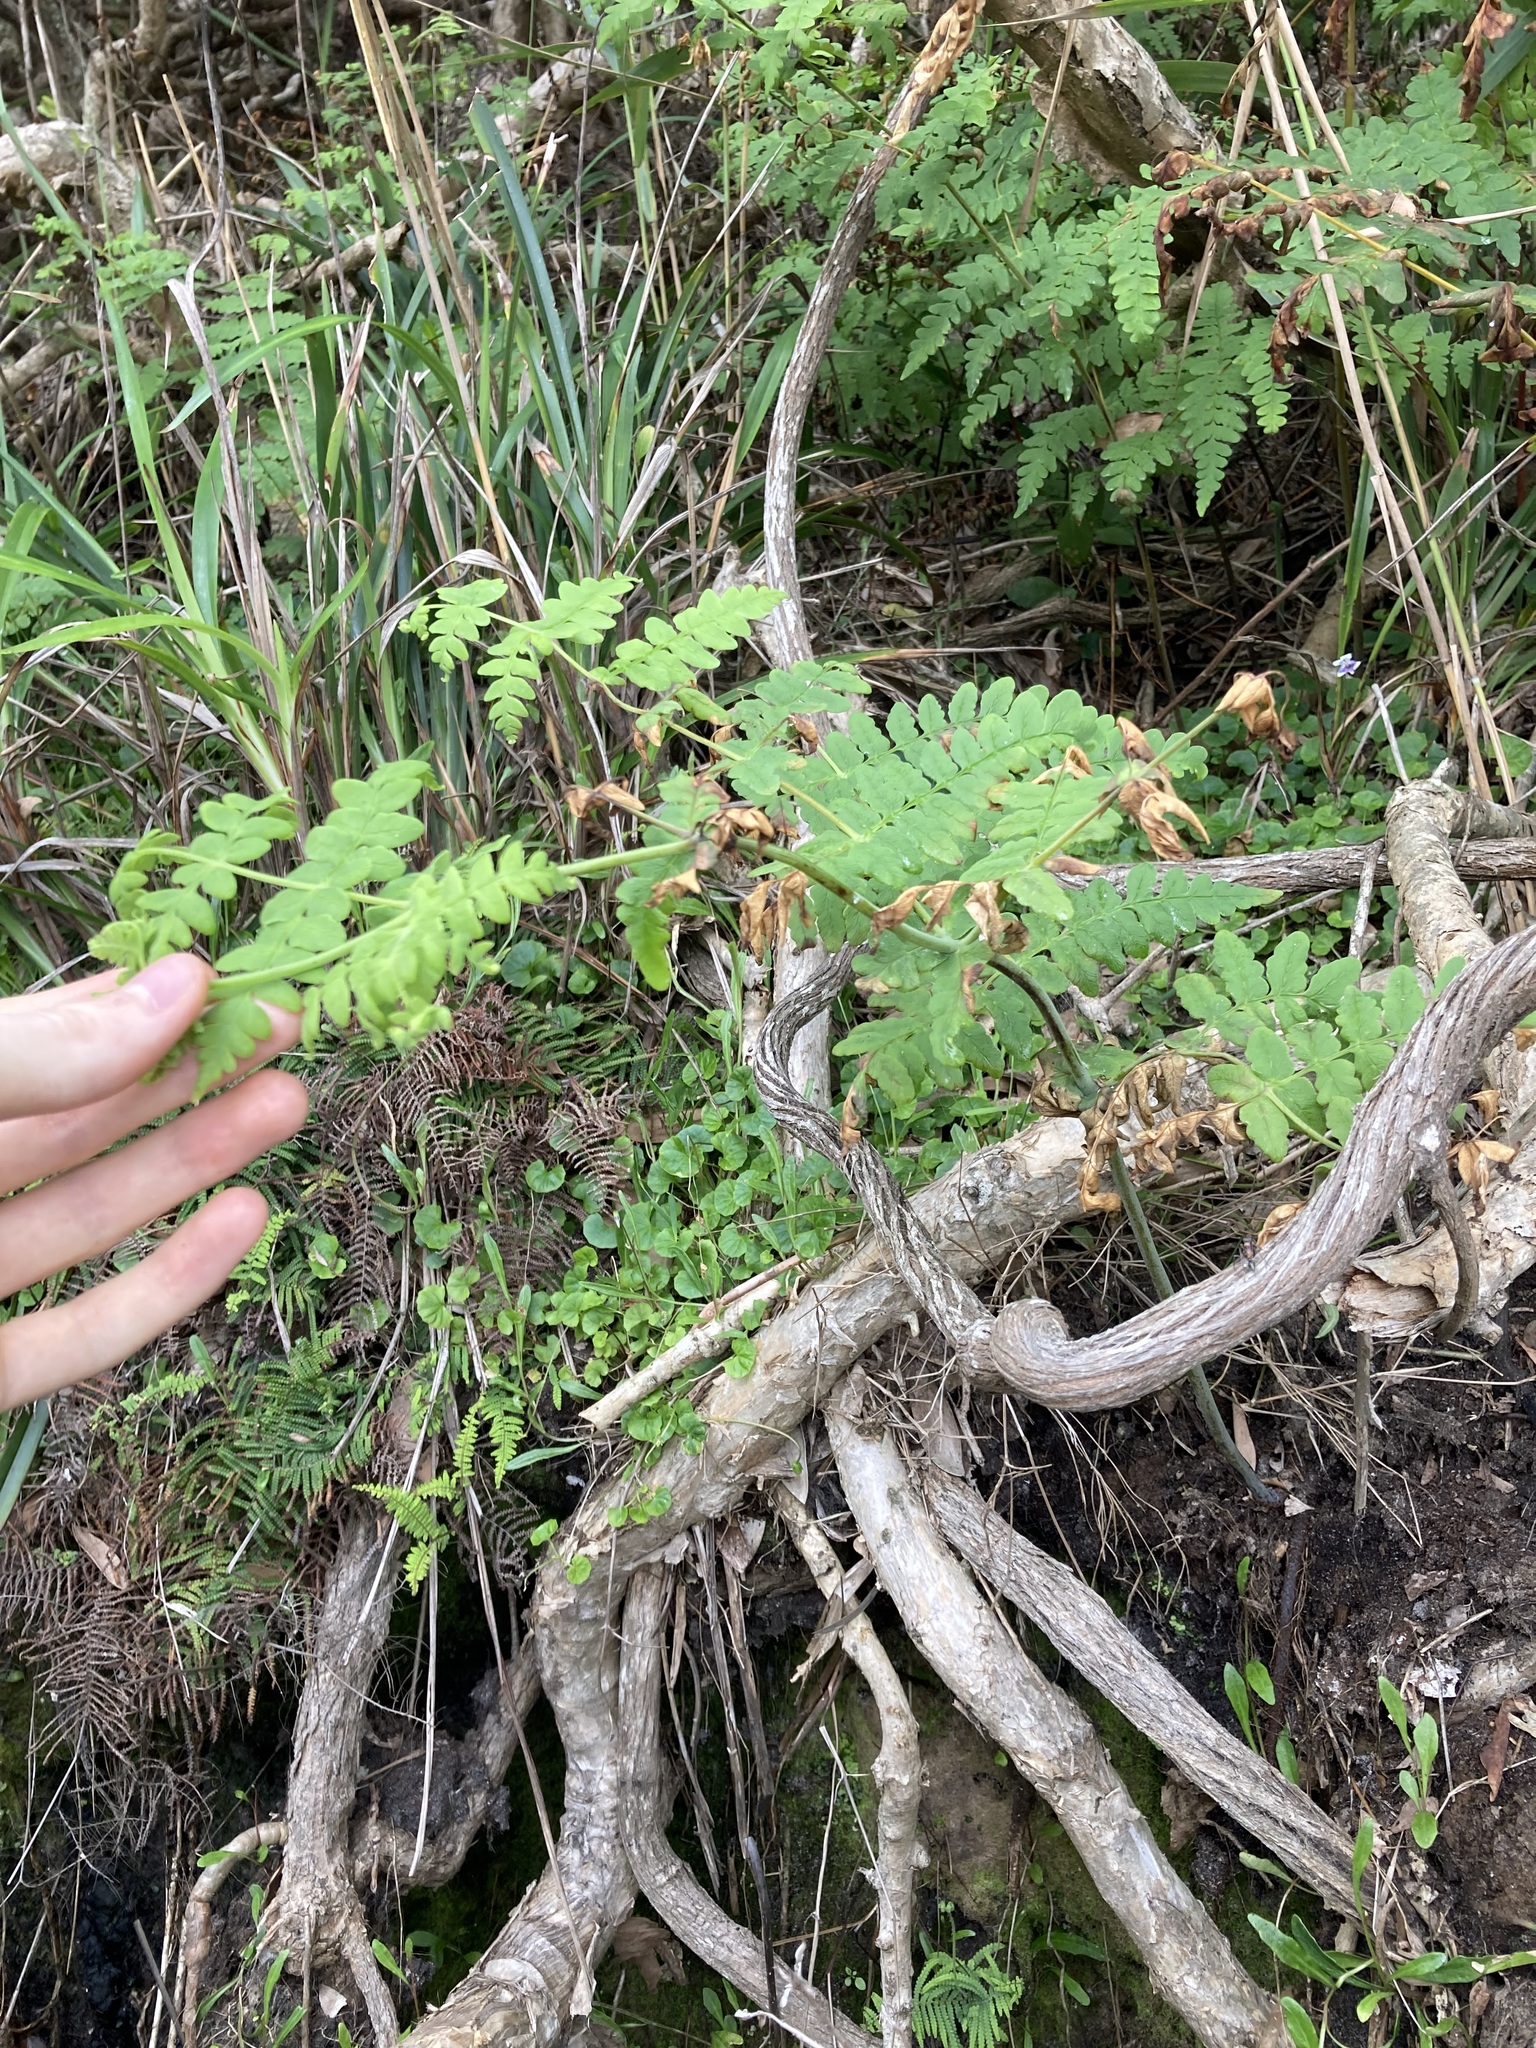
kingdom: Plantae
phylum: Tracheophyta
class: Polypodiopsida
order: Polypodiales
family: Dennstaedtiaceae
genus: Histiopteris
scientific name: Histiopteris incisa
